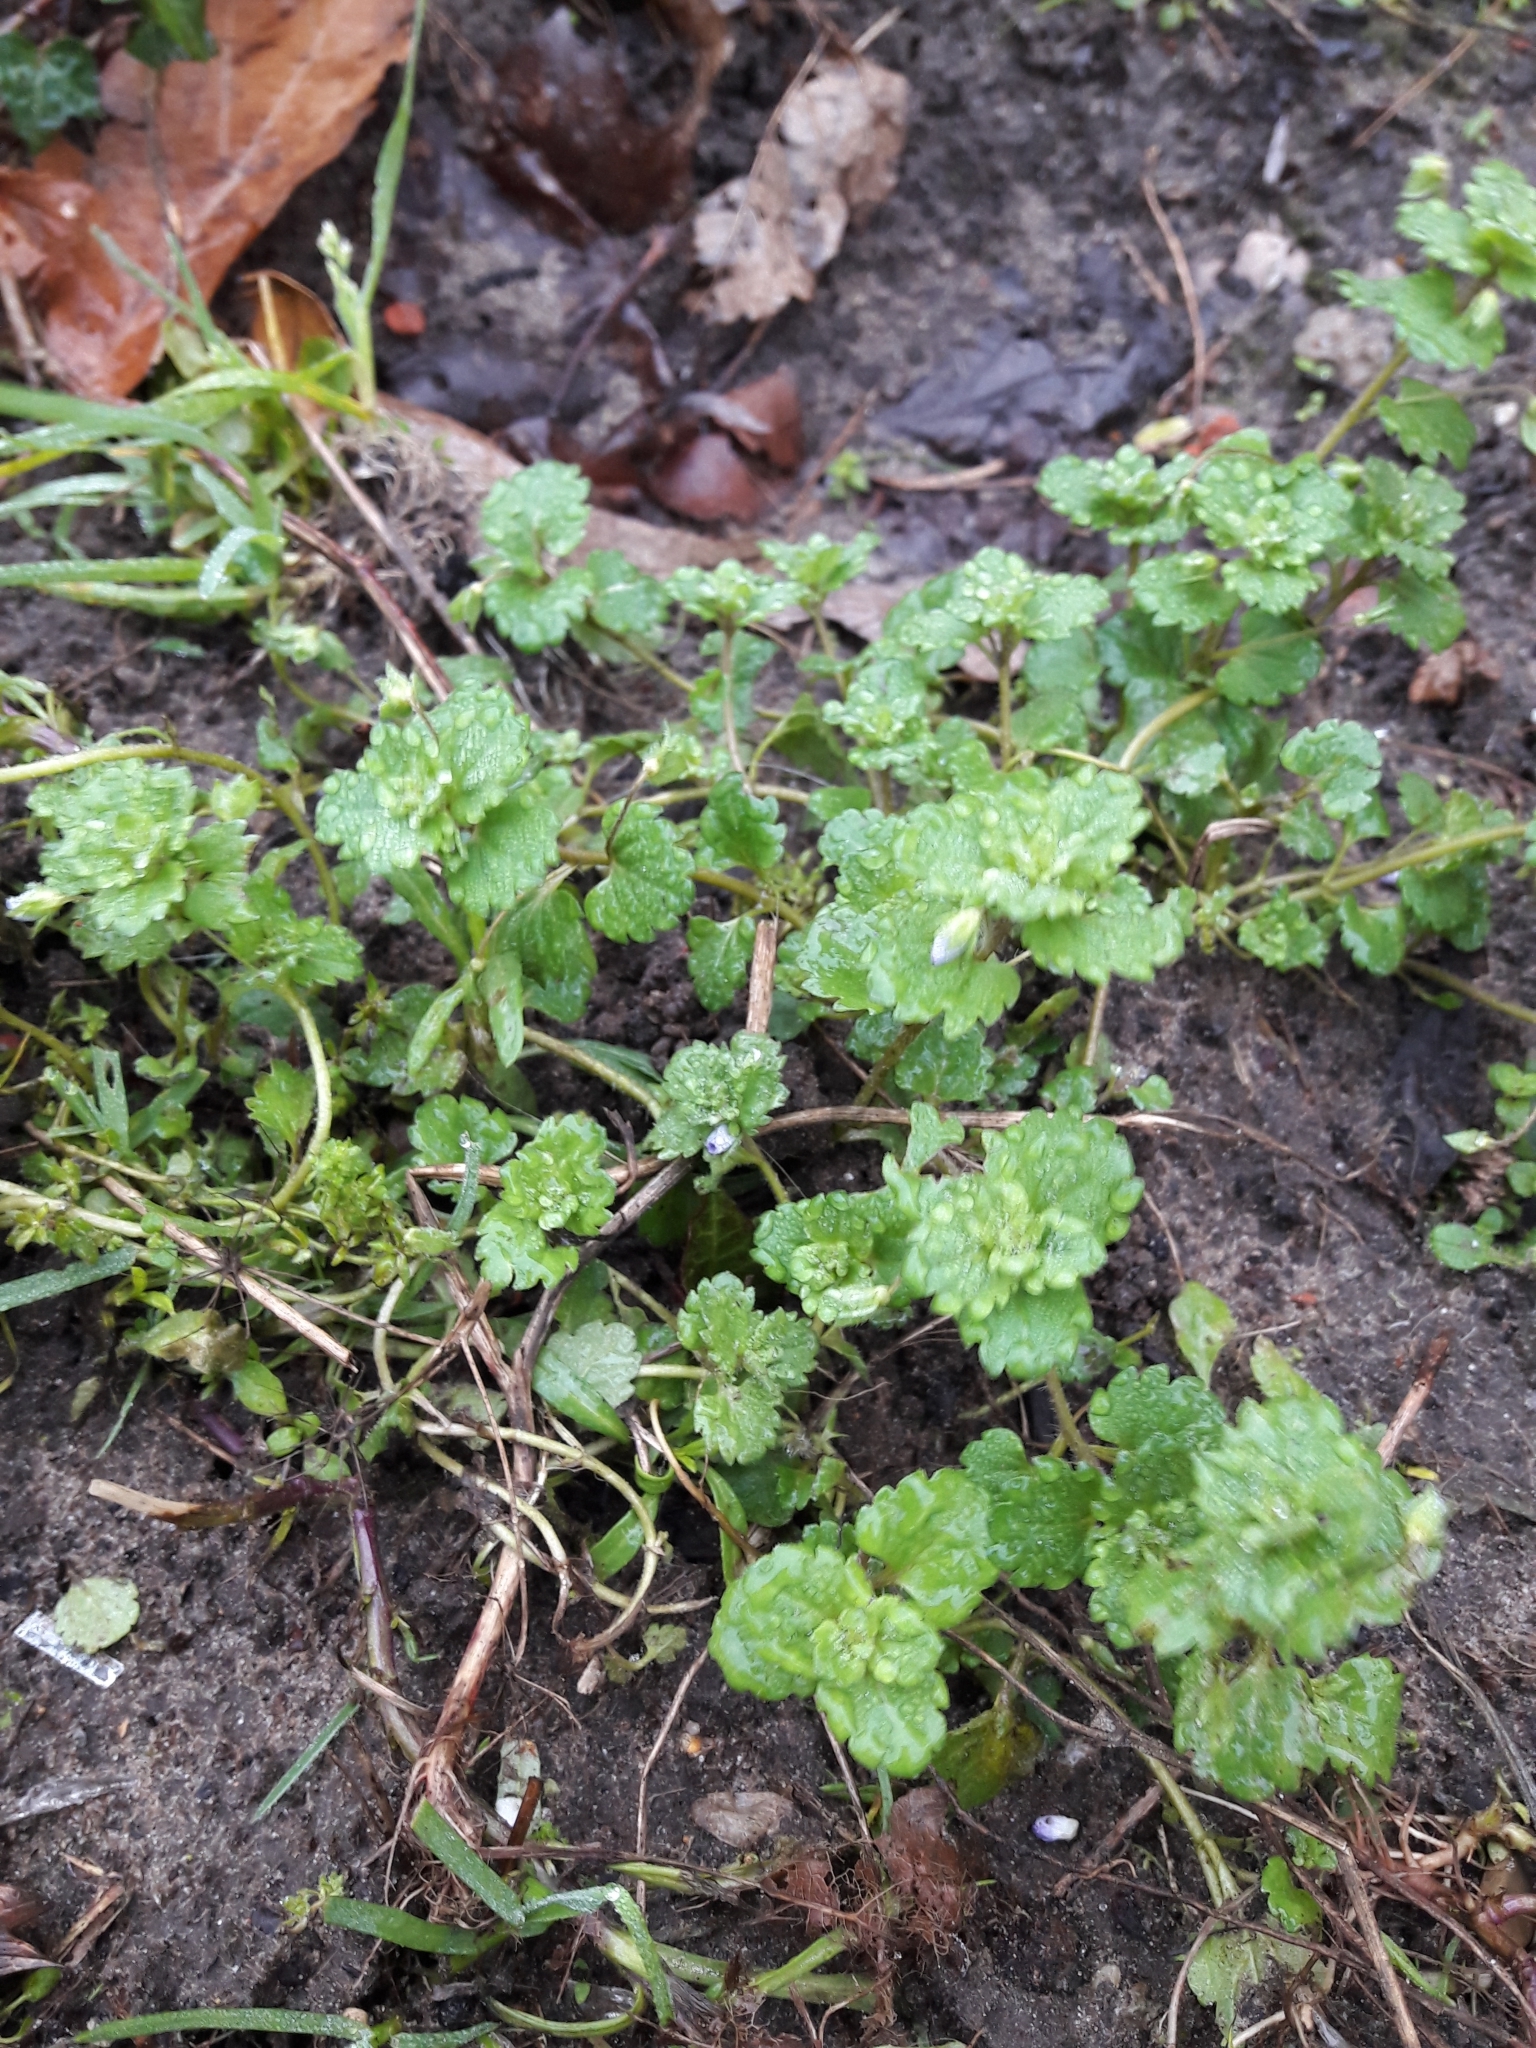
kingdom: Plantae
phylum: Tracheophyta
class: Magnoliopsida
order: Lamiales
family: Plantaginaceae
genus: Veronica
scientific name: Veronica persica
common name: Common field-speedwell
